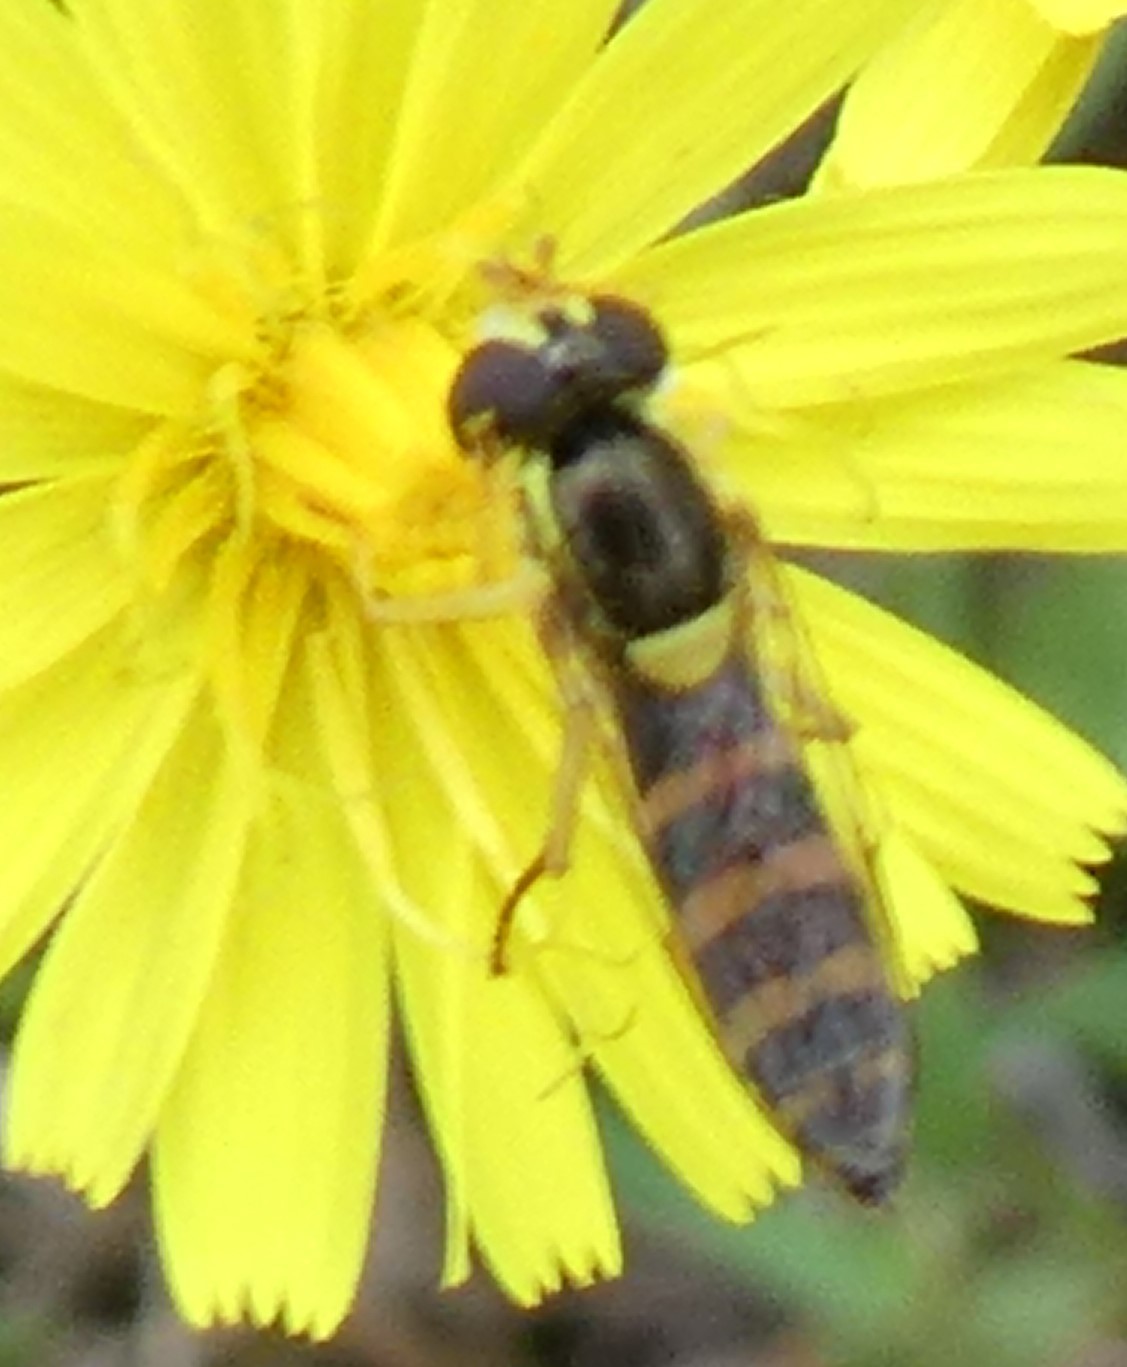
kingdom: Animalia
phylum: Arthropoda
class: Insecta
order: Diptera
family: Syrphidae
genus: Sphaerophoria
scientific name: Sphaerophoria
